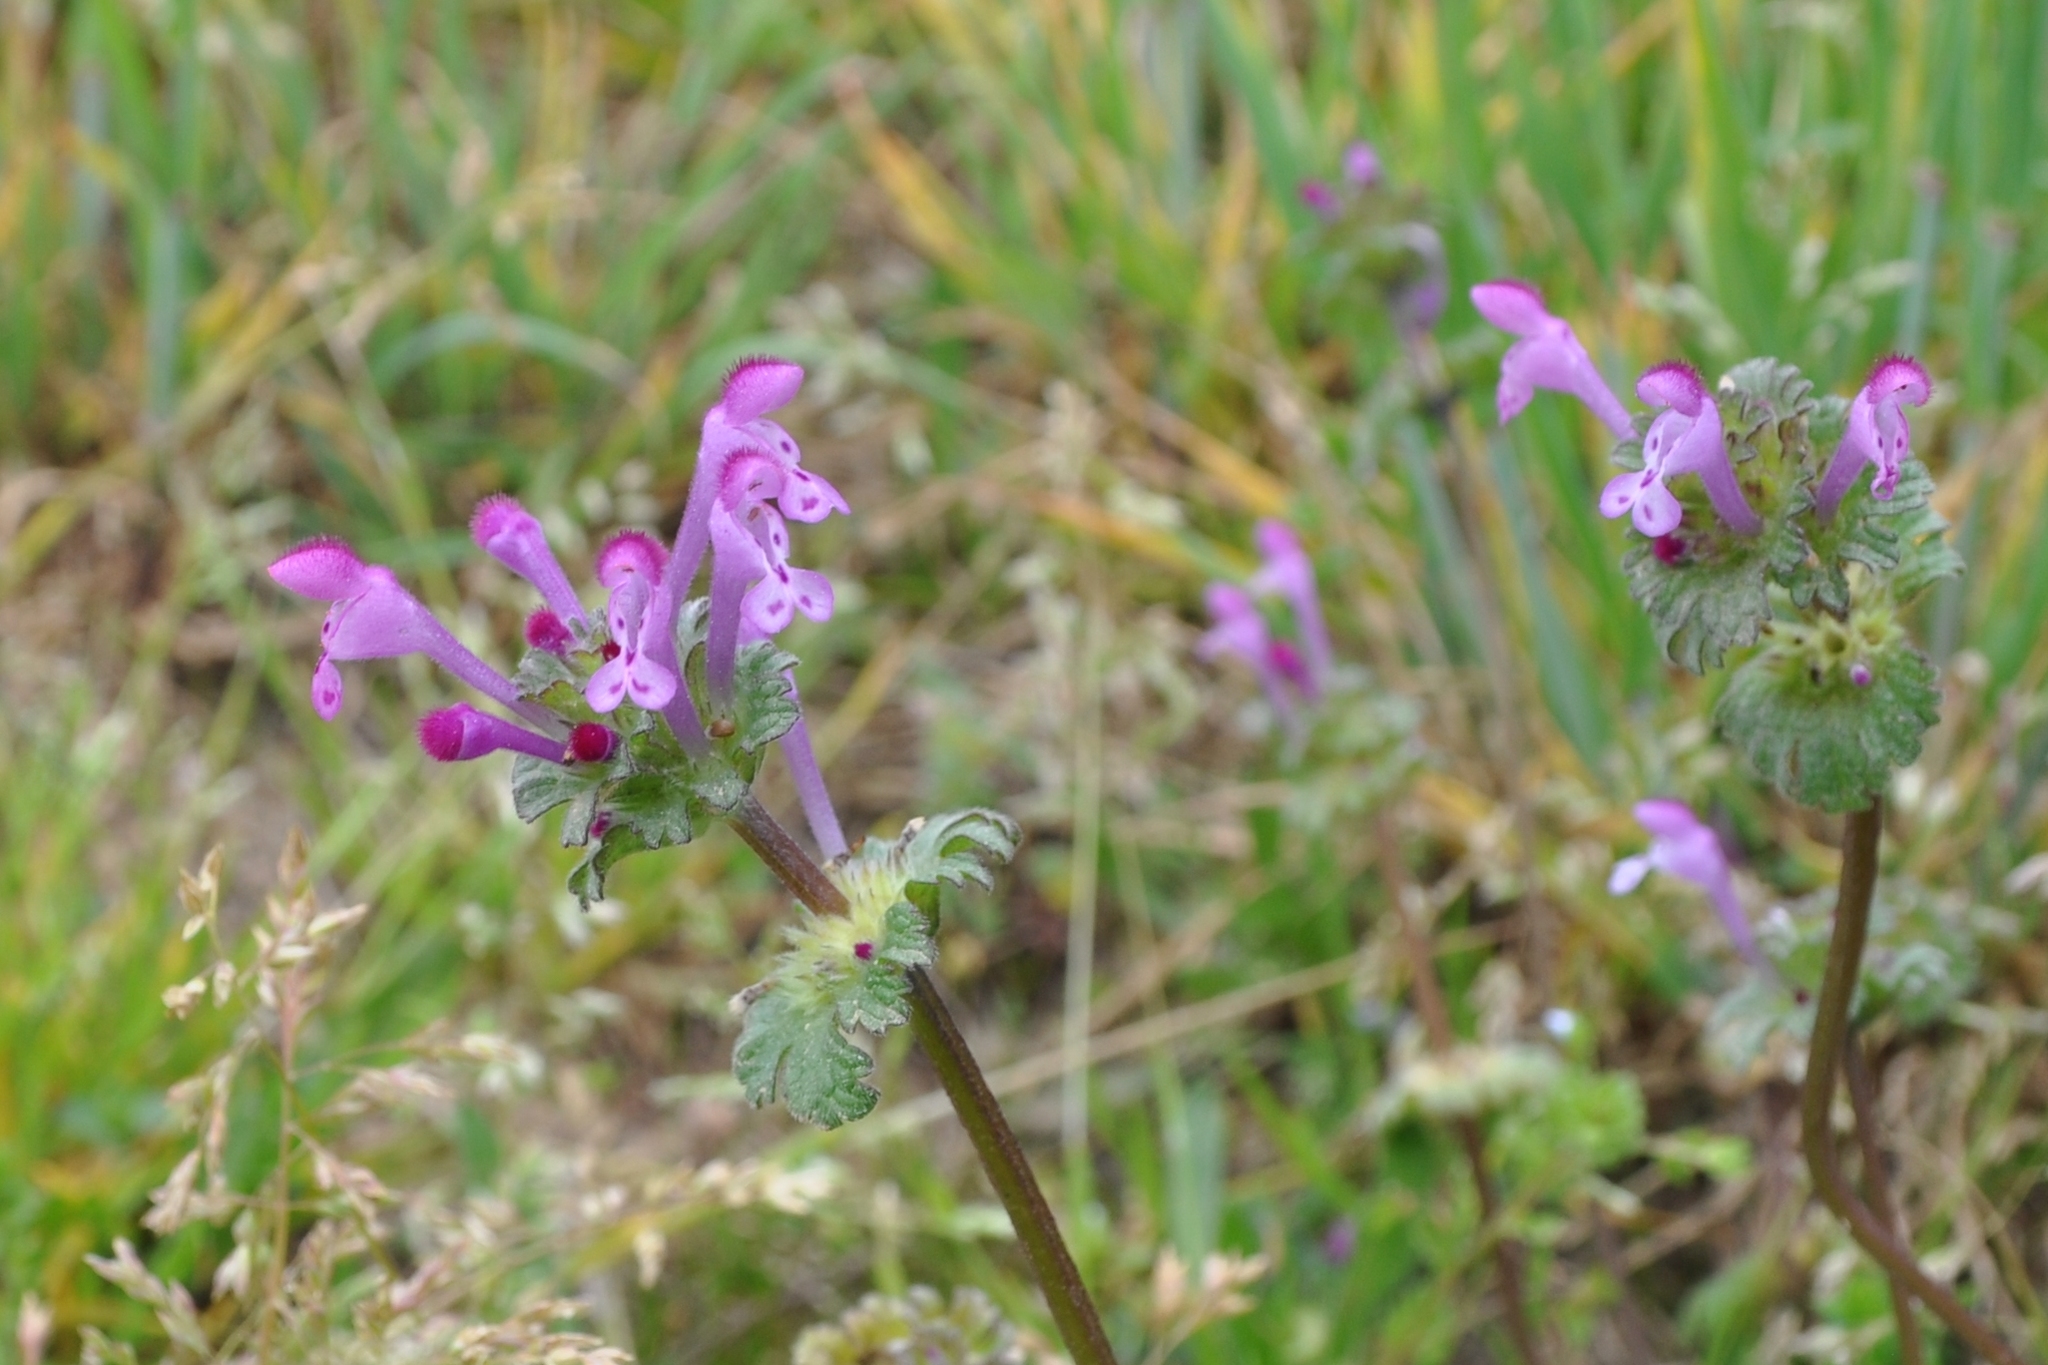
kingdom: Plantae
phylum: Tracheophyta
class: Magnoliopsida
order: Lamiales
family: Lamiaceae
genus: Lamium
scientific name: Lamium amplexicaule
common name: Henbit dead-nettle
